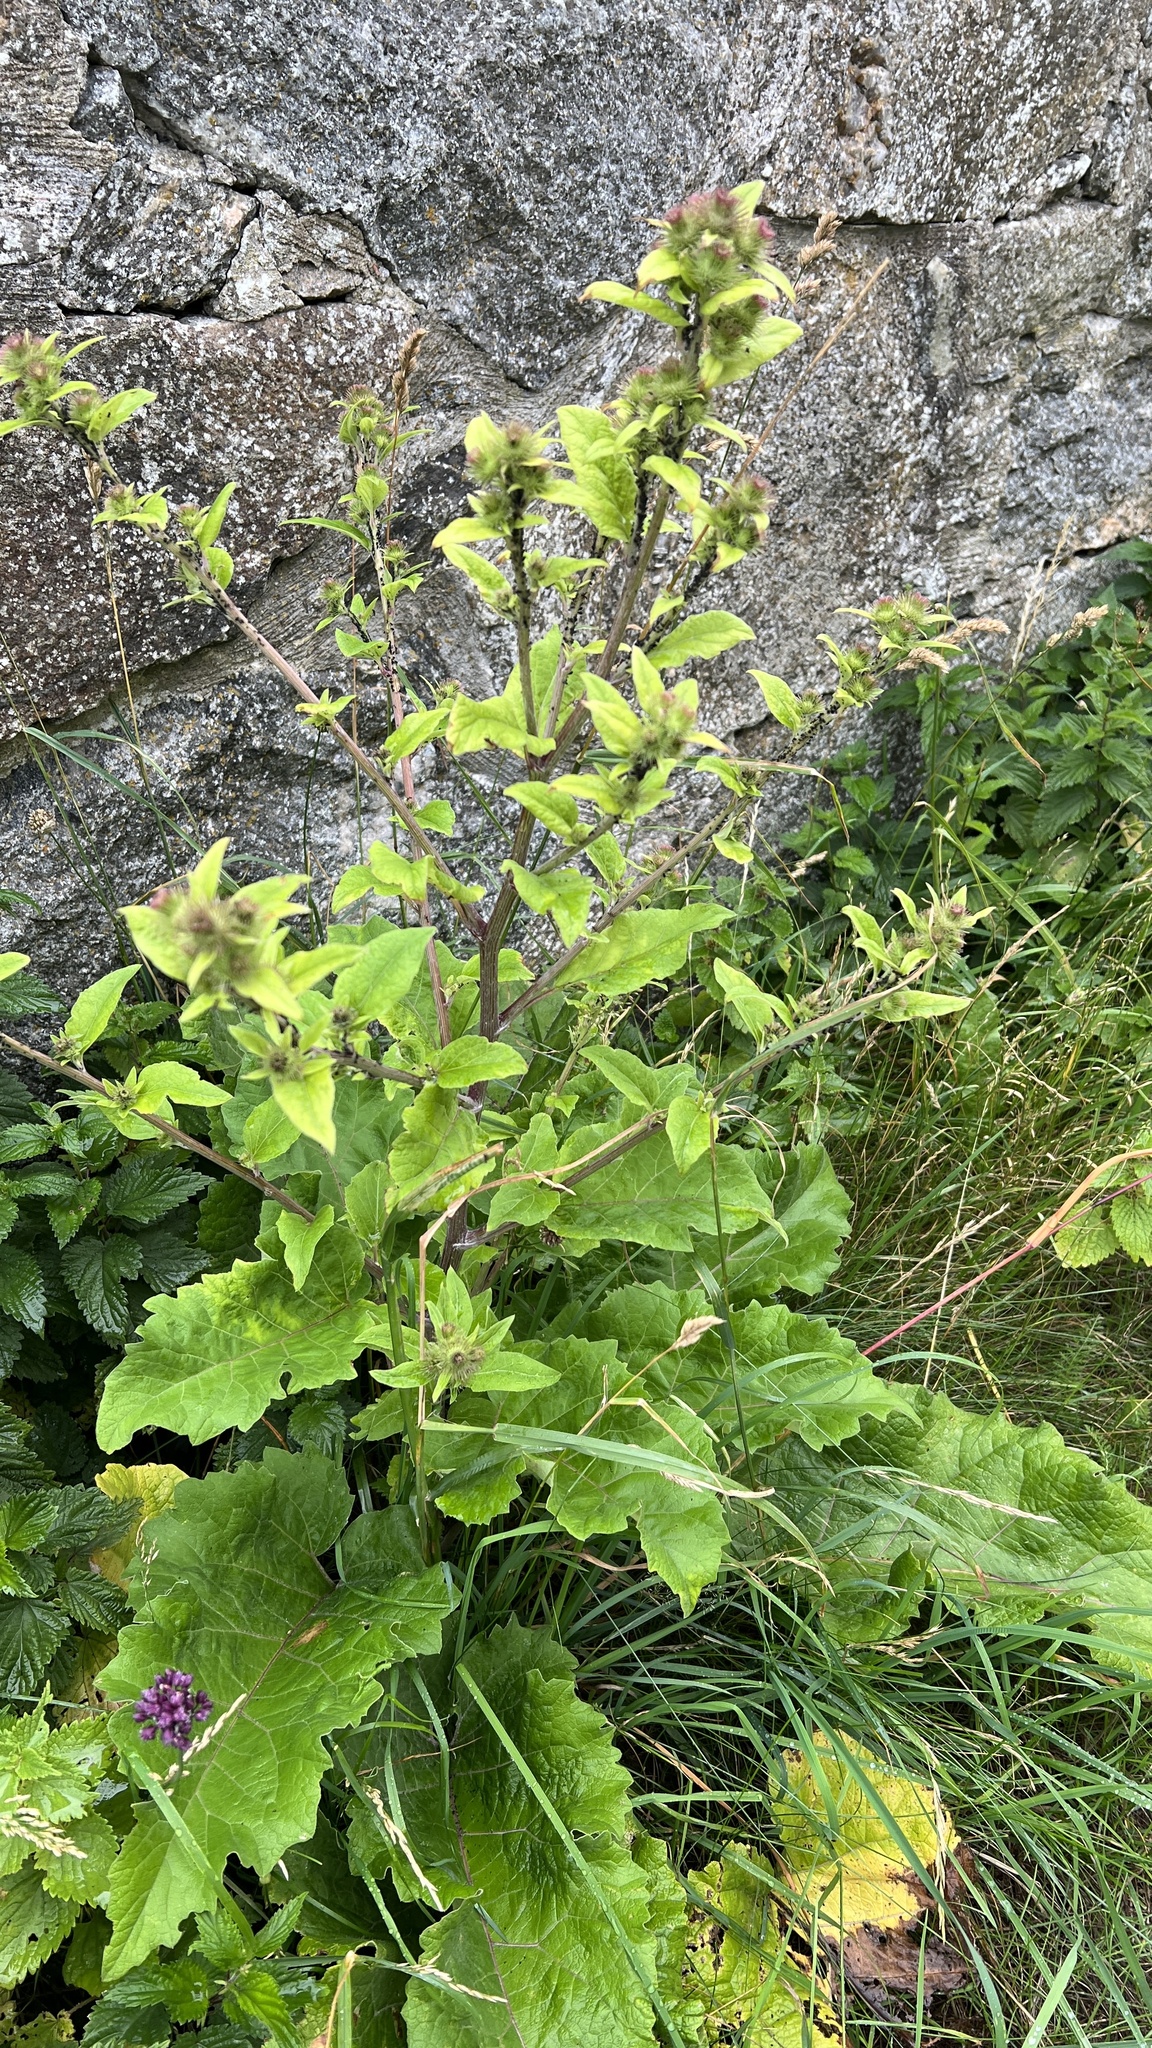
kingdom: Plantae
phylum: Tracheophyta
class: Magnoliopsida
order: Asterales
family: Asteraceae
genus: Arctium
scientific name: Arctium lappa
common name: Greater burdock
